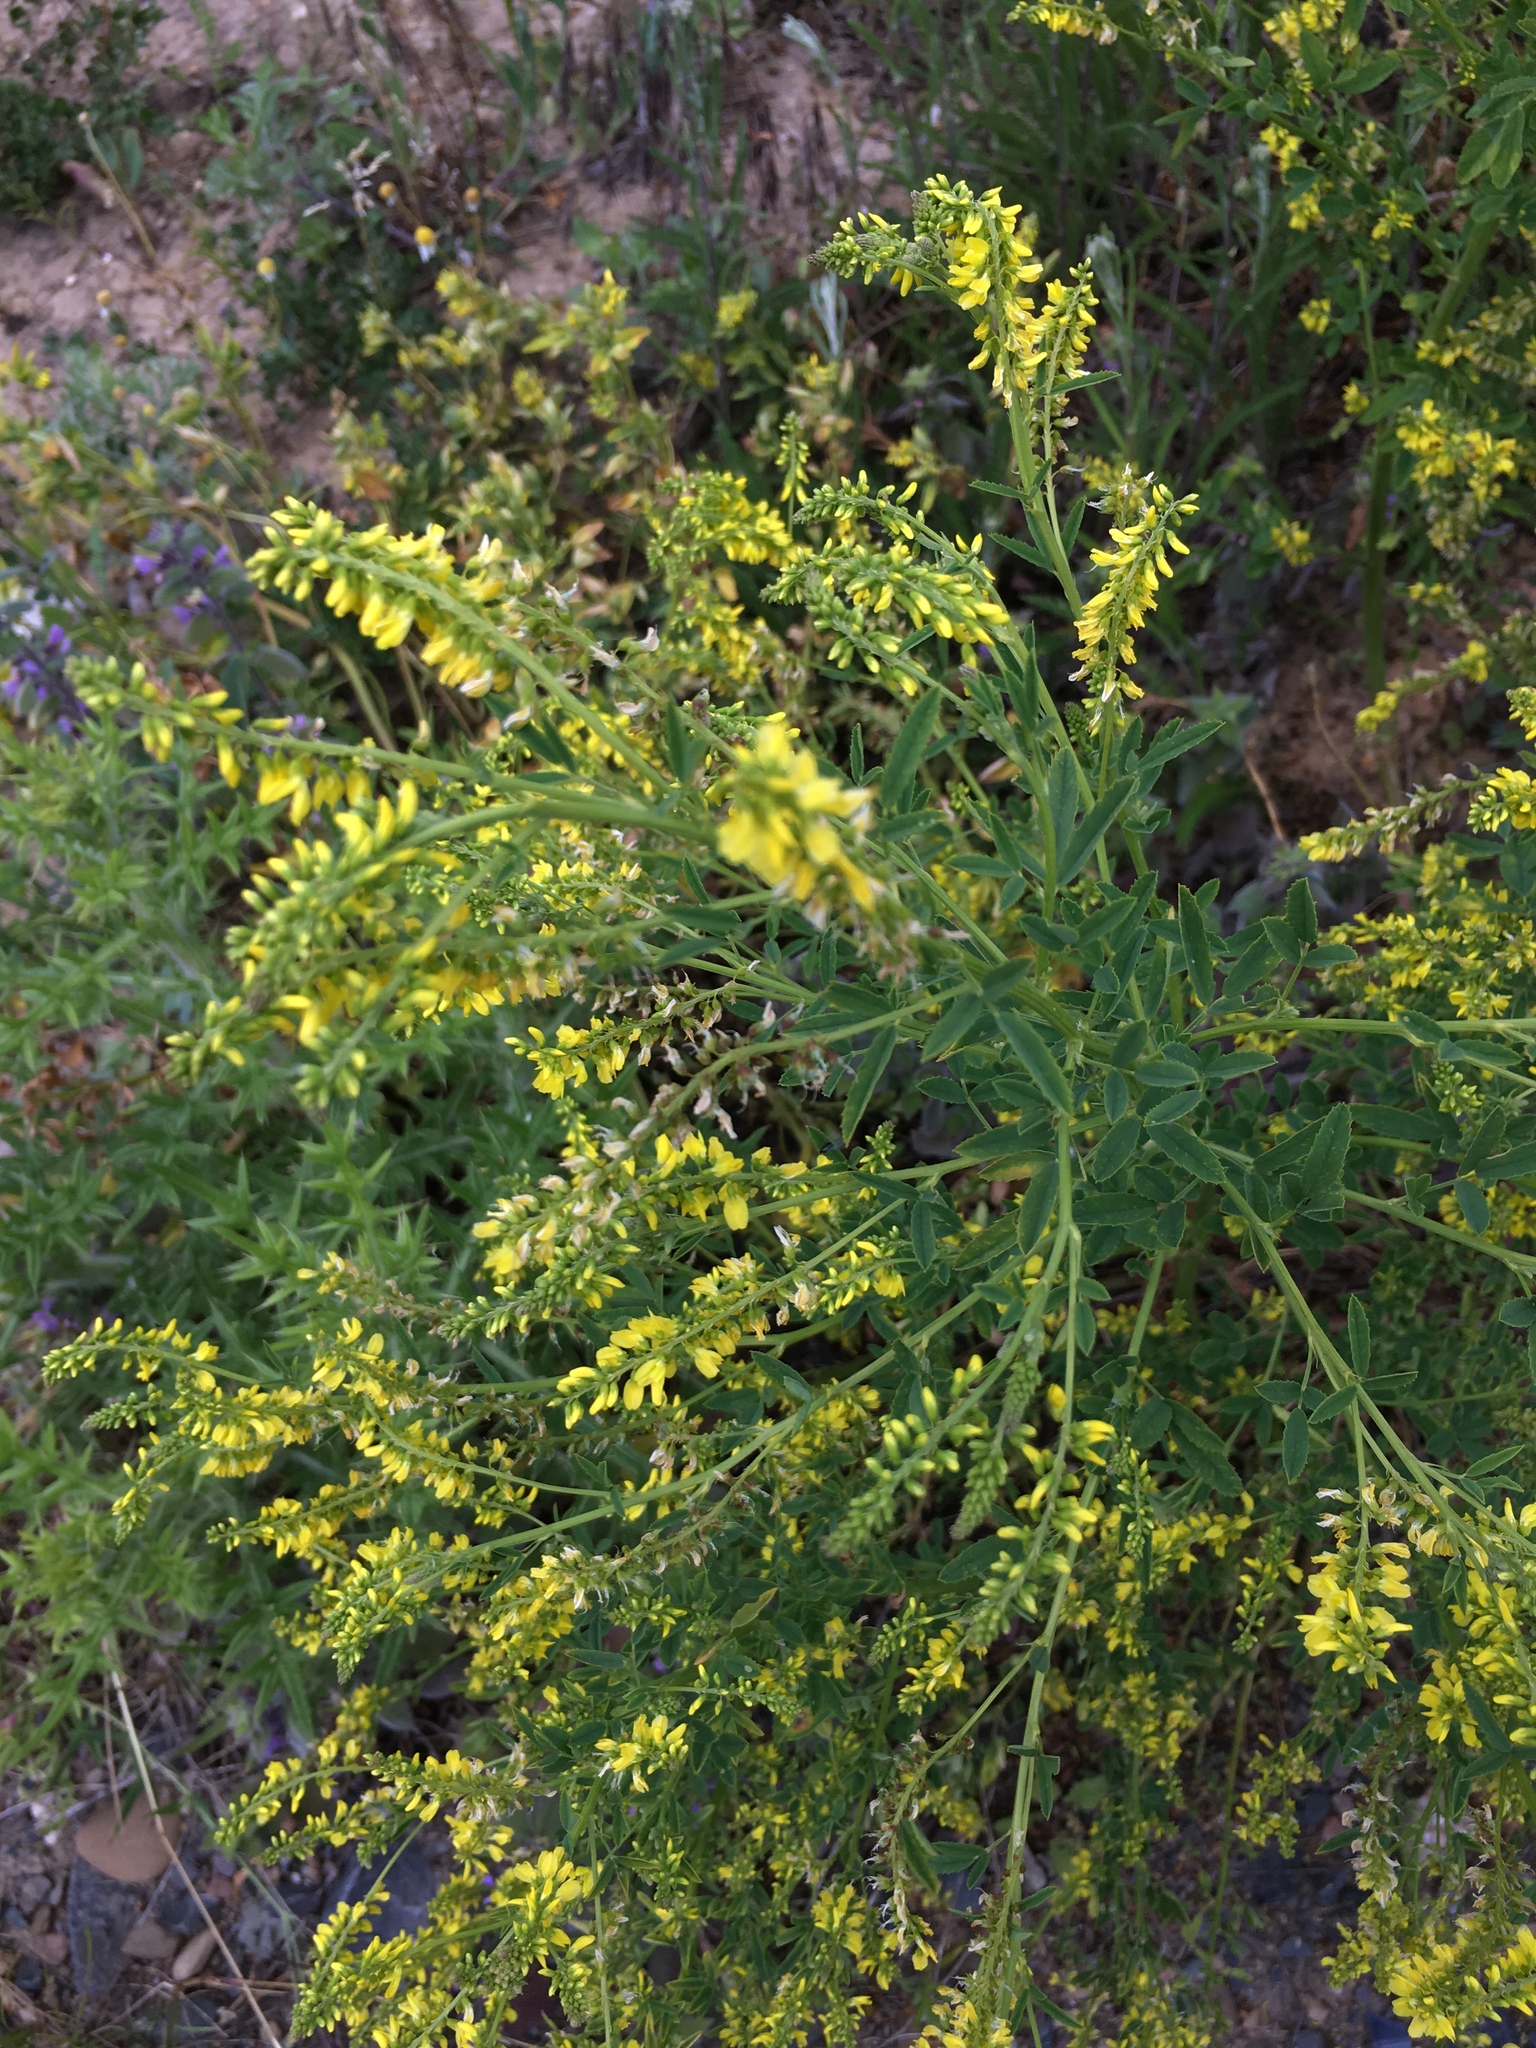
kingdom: Plantae
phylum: Tracheophyta
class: Magnoliopsida
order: Fabales
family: Fabaceae
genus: Melilotus
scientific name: Melilotus officinalis
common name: Sweetclover
